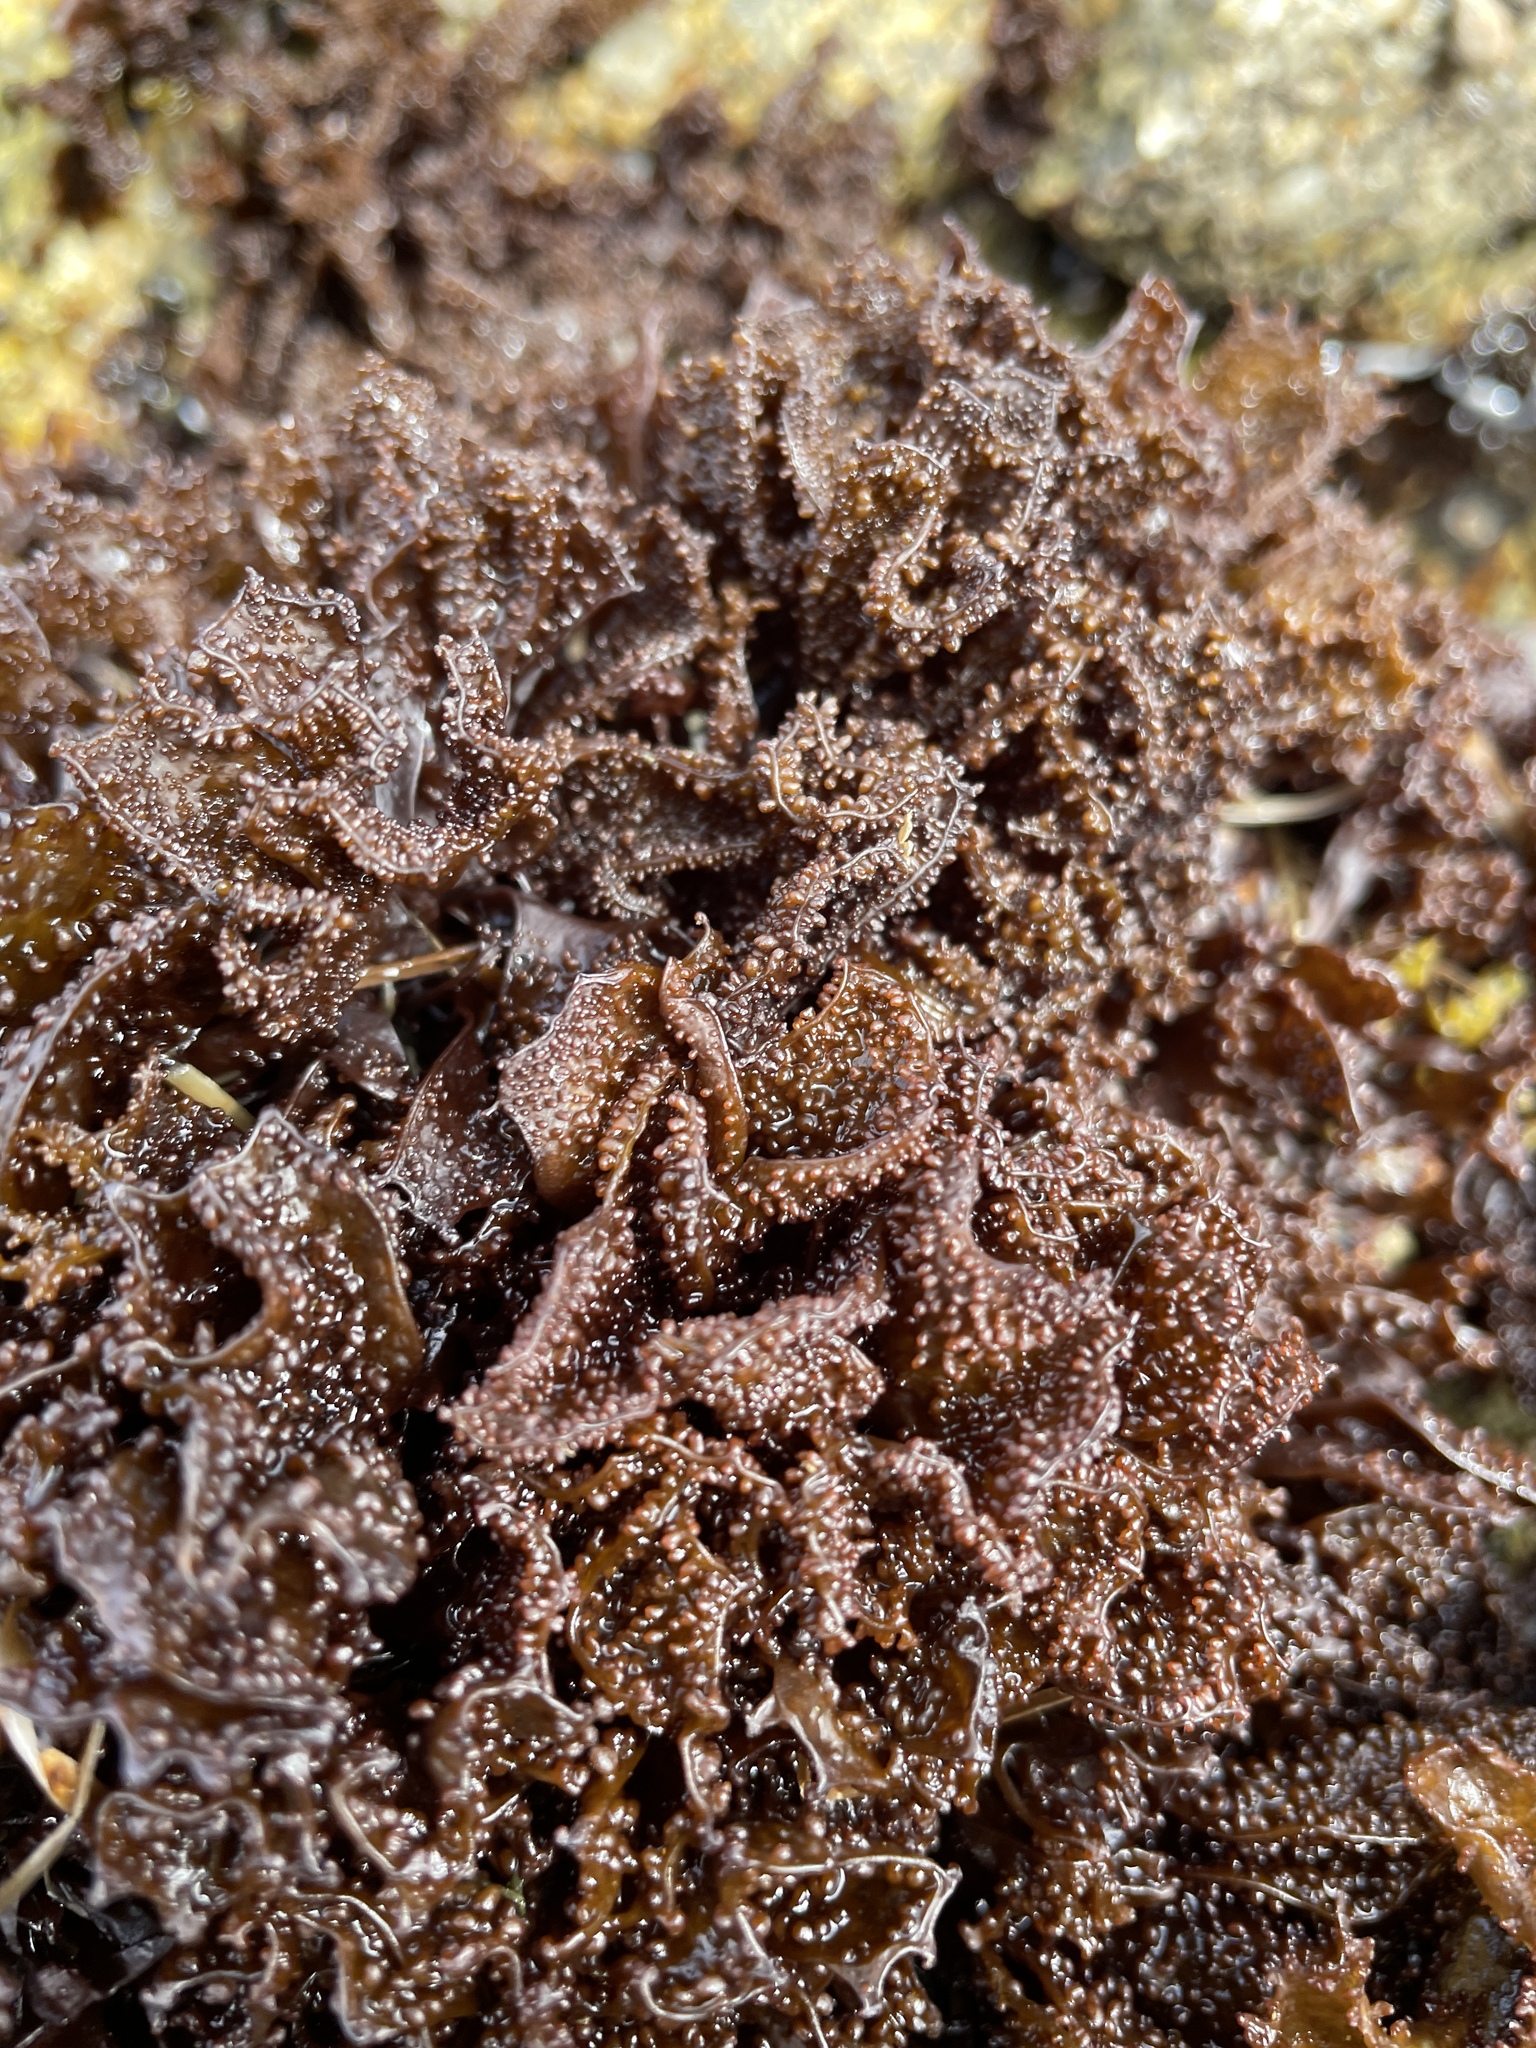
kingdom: Plantae
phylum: Rhodophyta
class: Florideophyceae
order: Gigartinales
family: Phyllophoraceae
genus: Mastocarpus
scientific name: Mastocarpus papillatus
